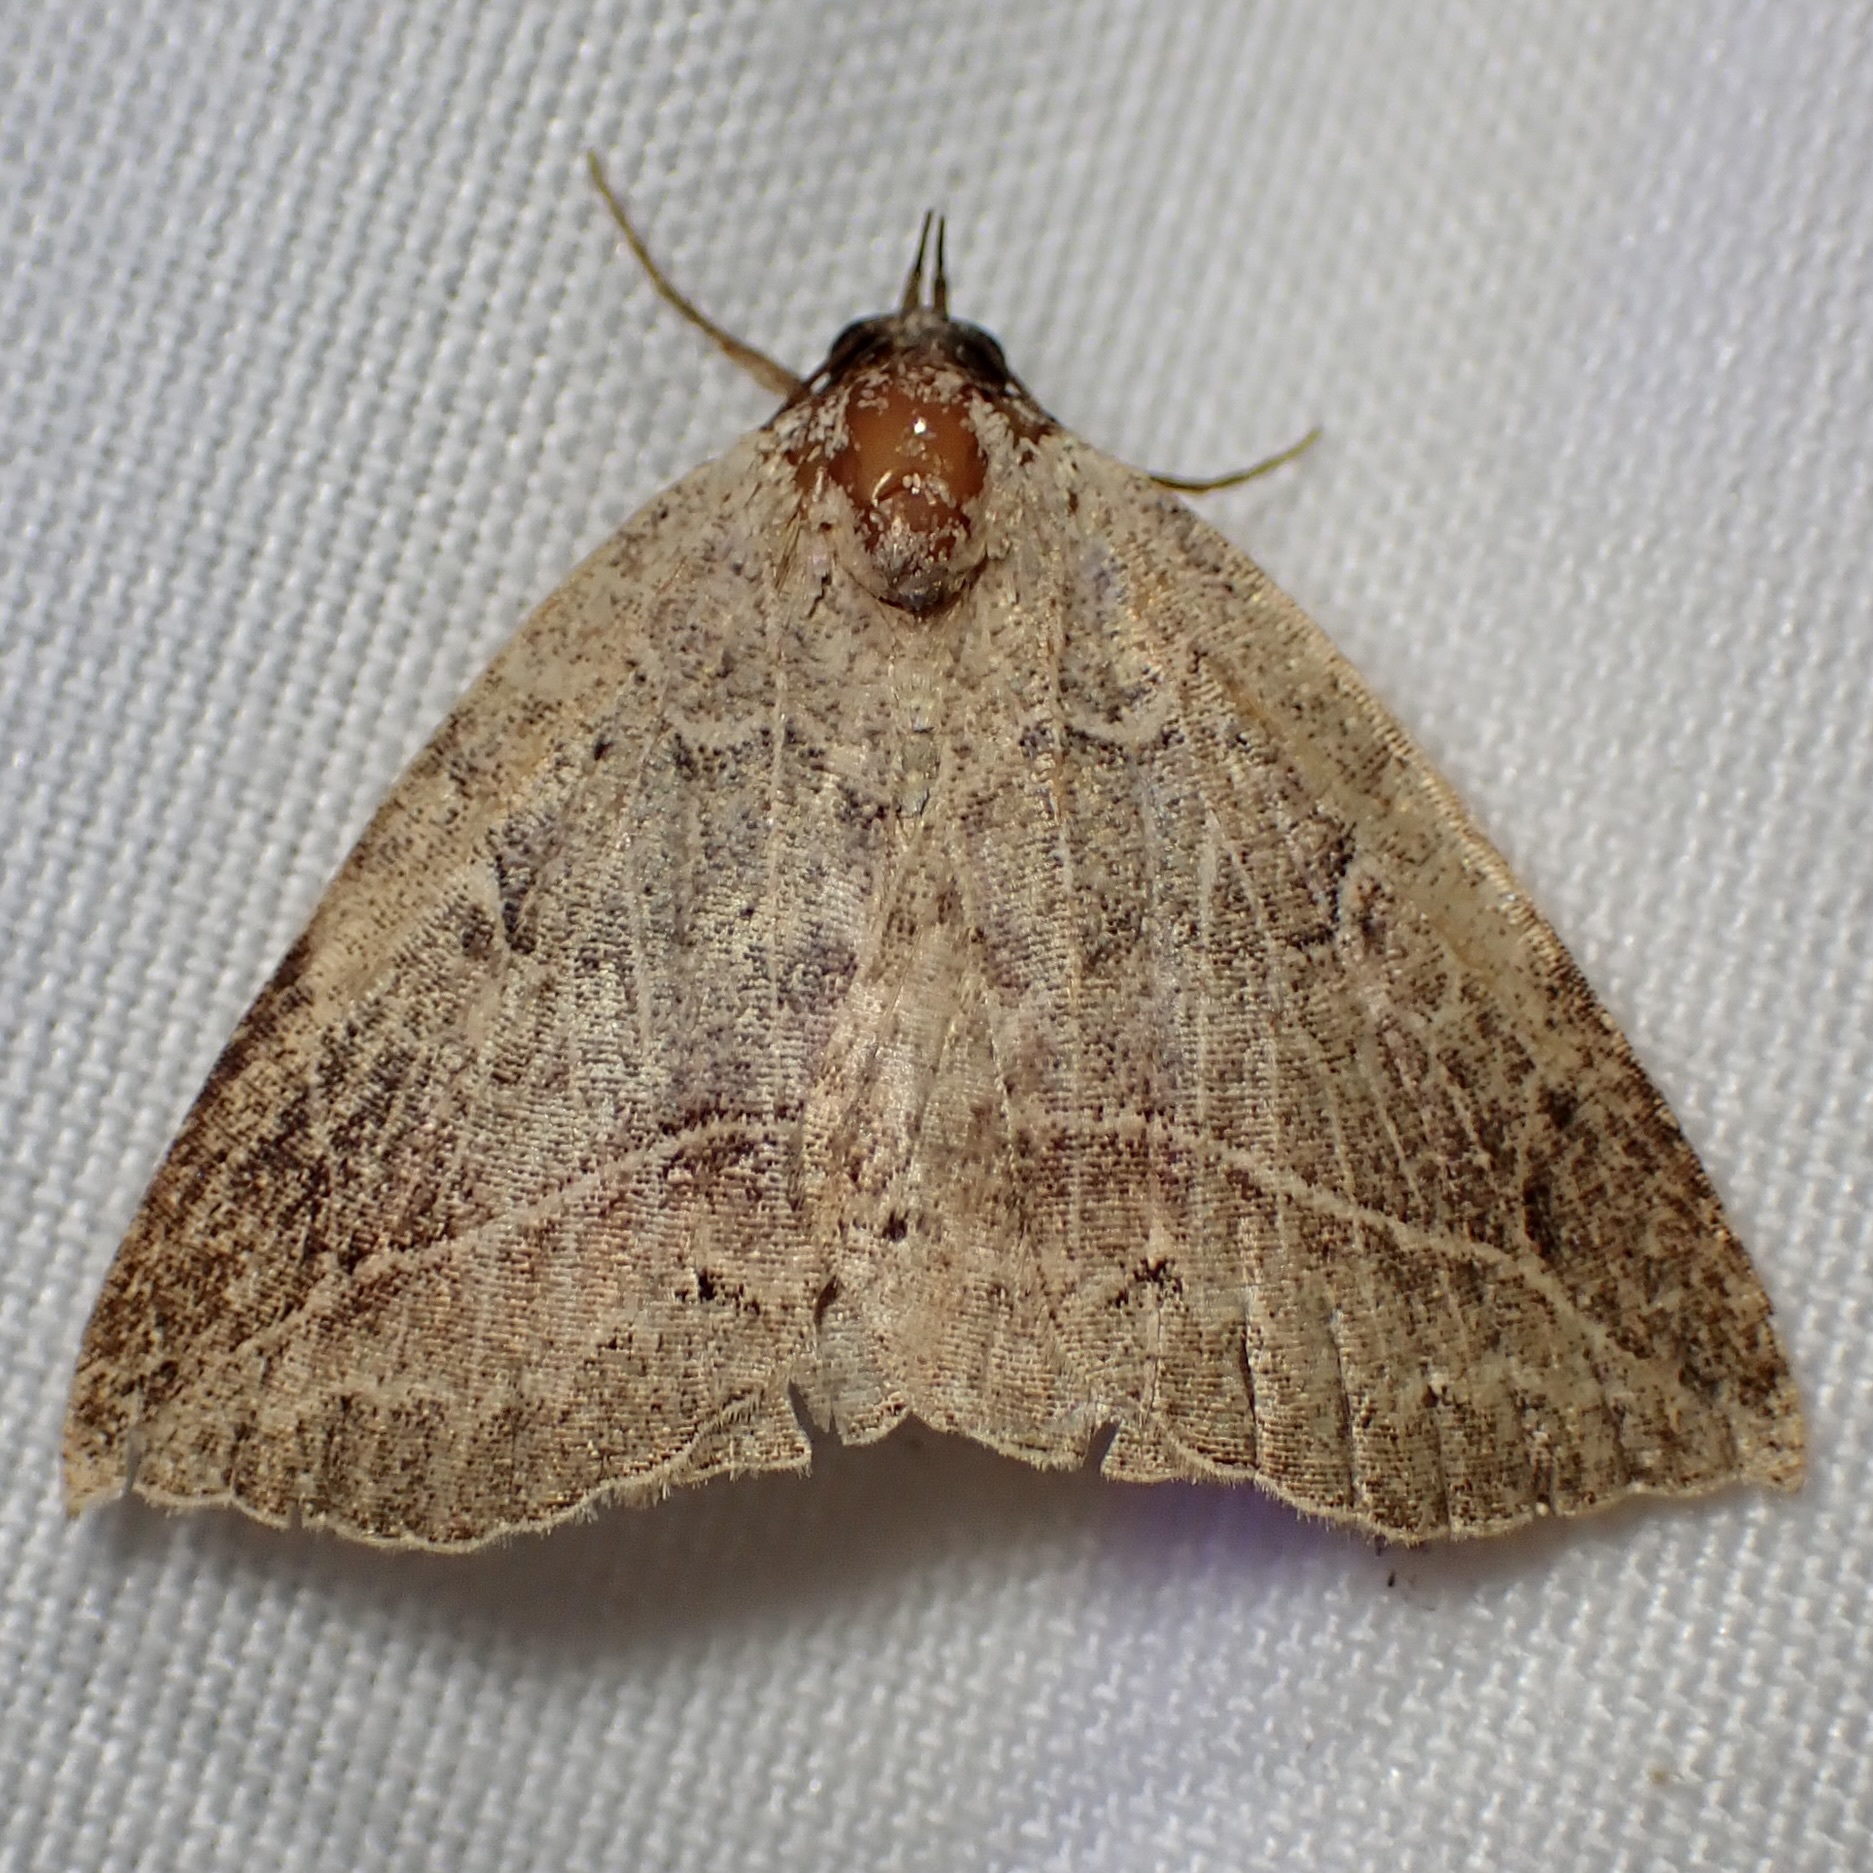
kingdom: Animalia
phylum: Arthropoda
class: Insecta
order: Lepidoptera
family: Erebidae
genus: Isogona
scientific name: Isogona segura
